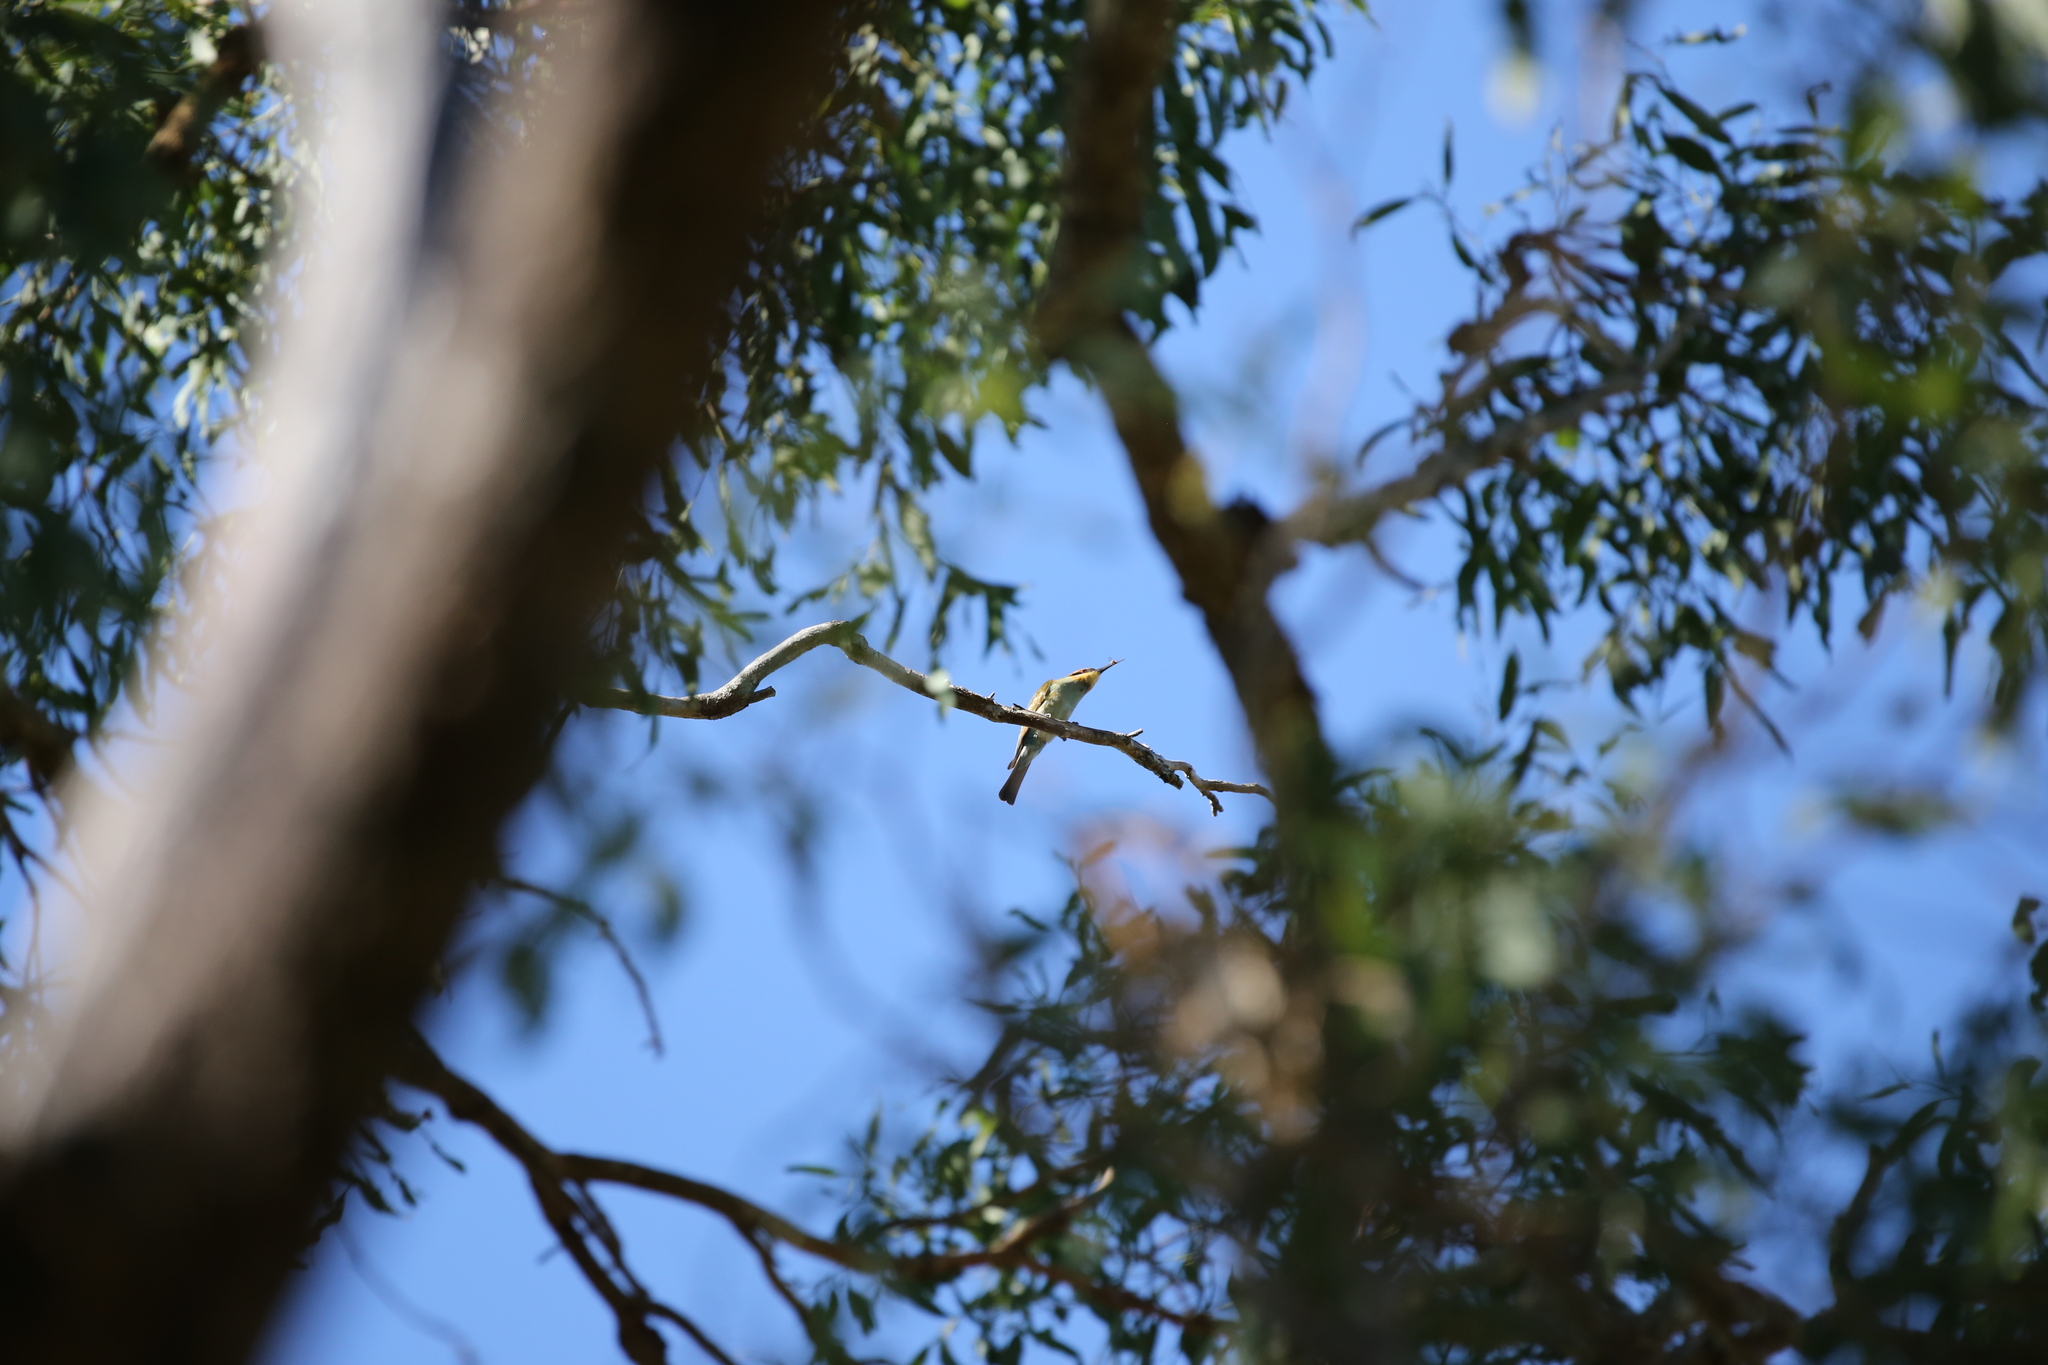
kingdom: Animalia
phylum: Chordata
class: Aves
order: Coraciiformes
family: Meropidae
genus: Merops
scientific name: Merops ornatus
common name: Rainbow bee-eater
